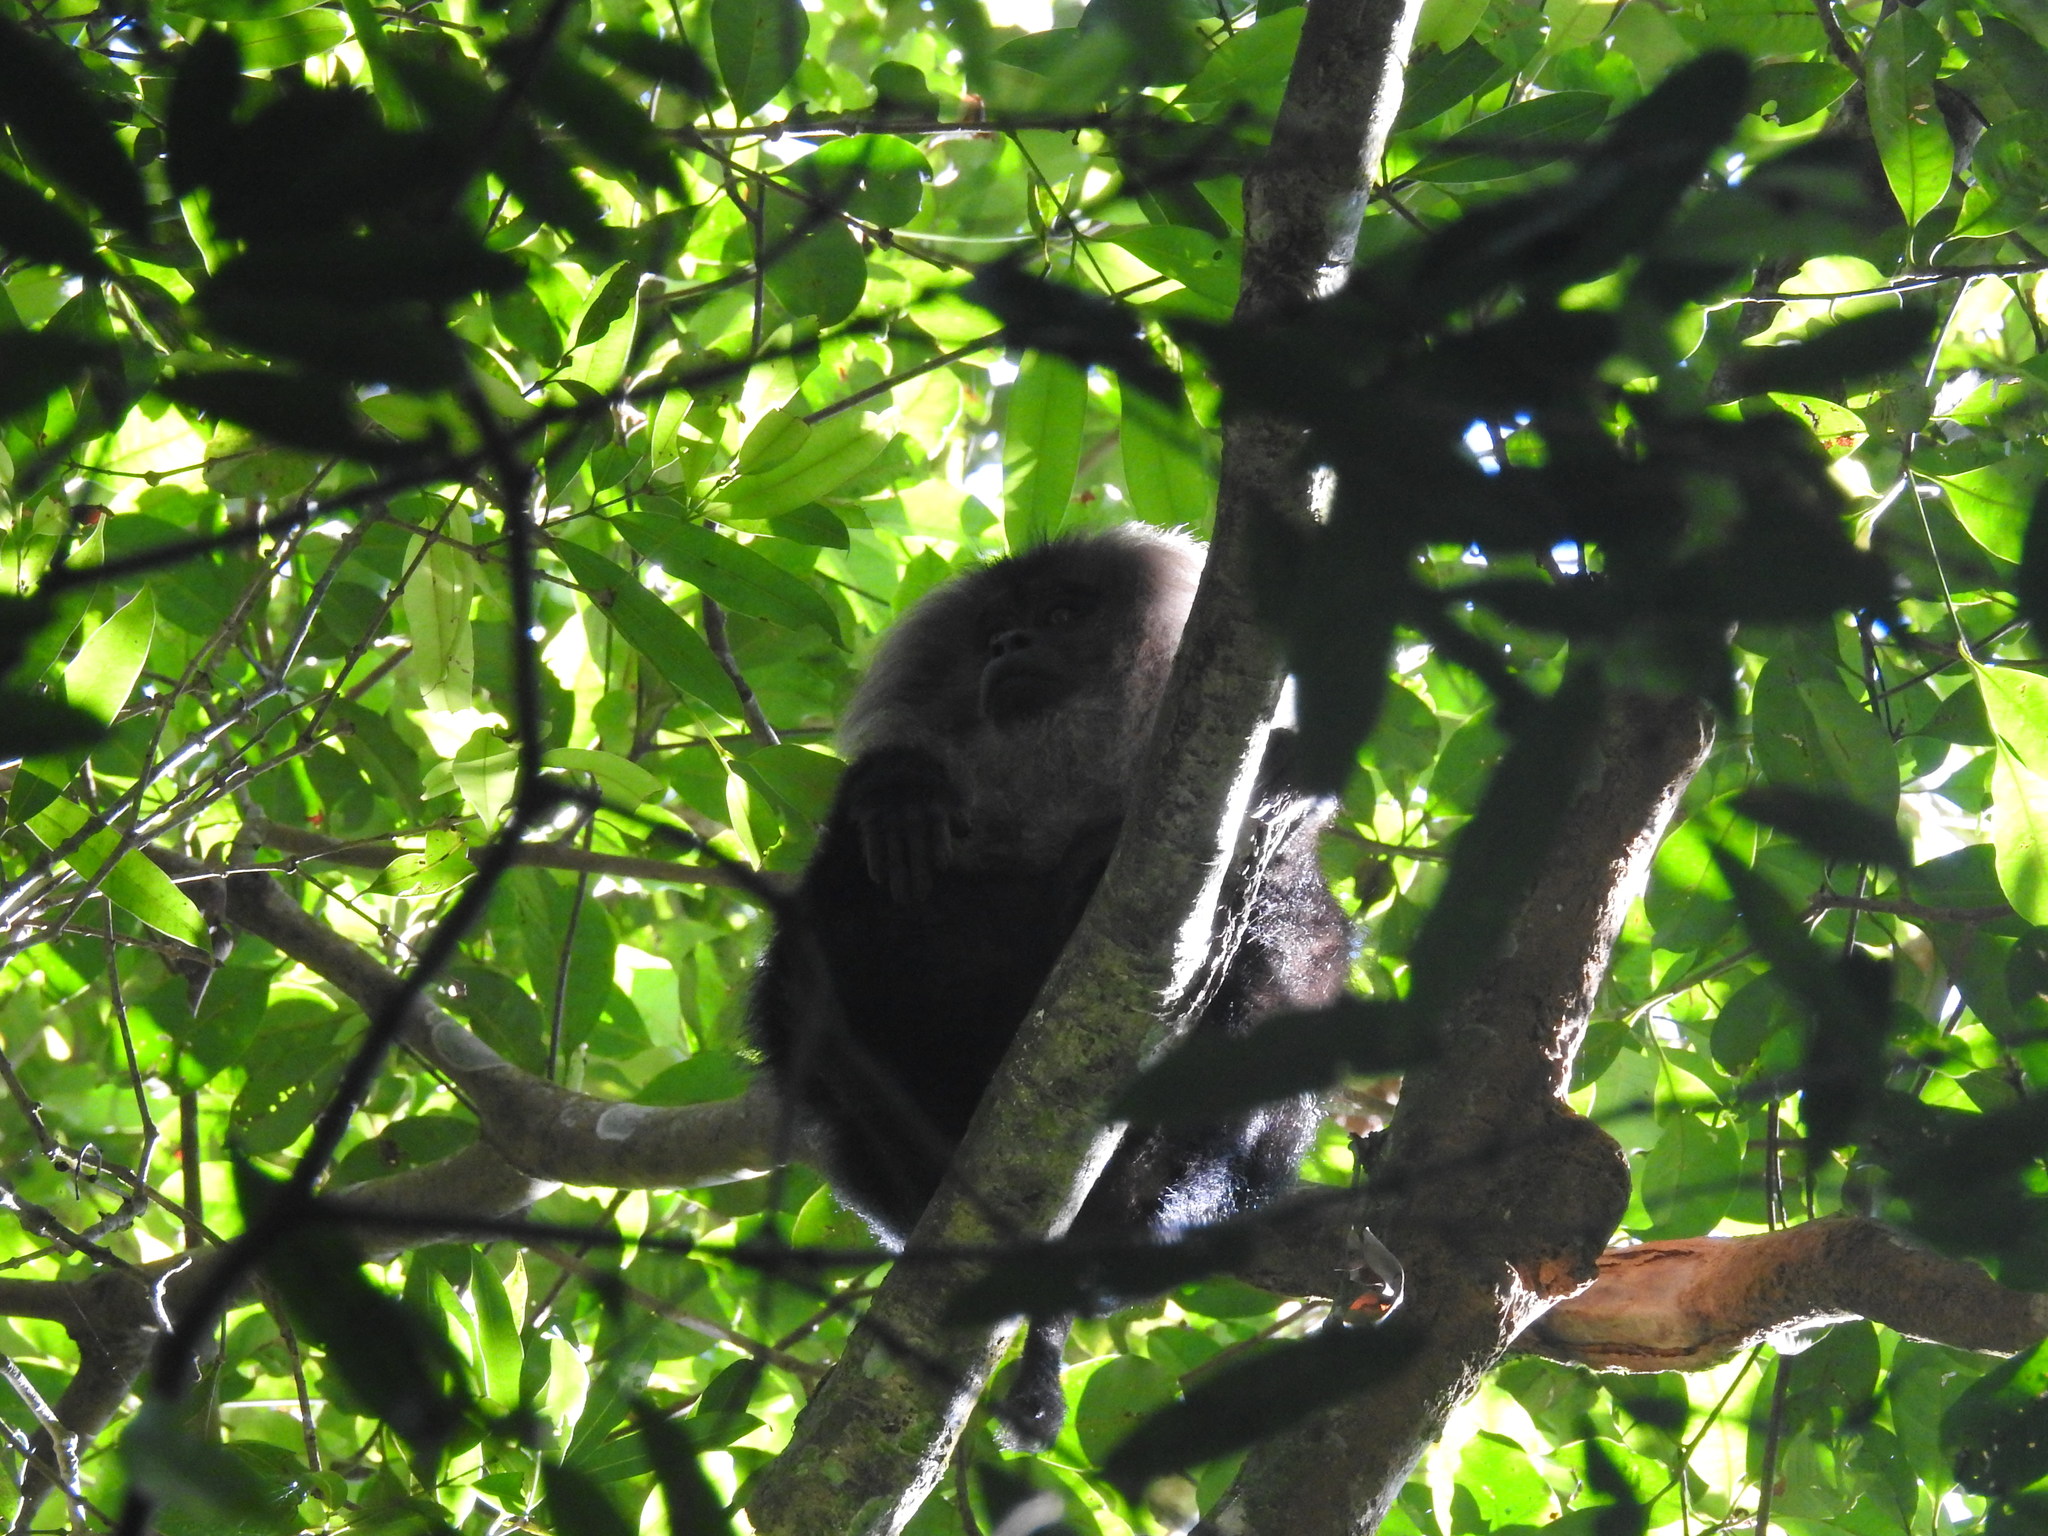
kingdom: Animalia
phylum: Chordata
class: Mammalia
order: Primates
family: Cercopithecidae
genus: Macaca
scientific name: Macaca silenus
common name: Lion-tailed macaque
